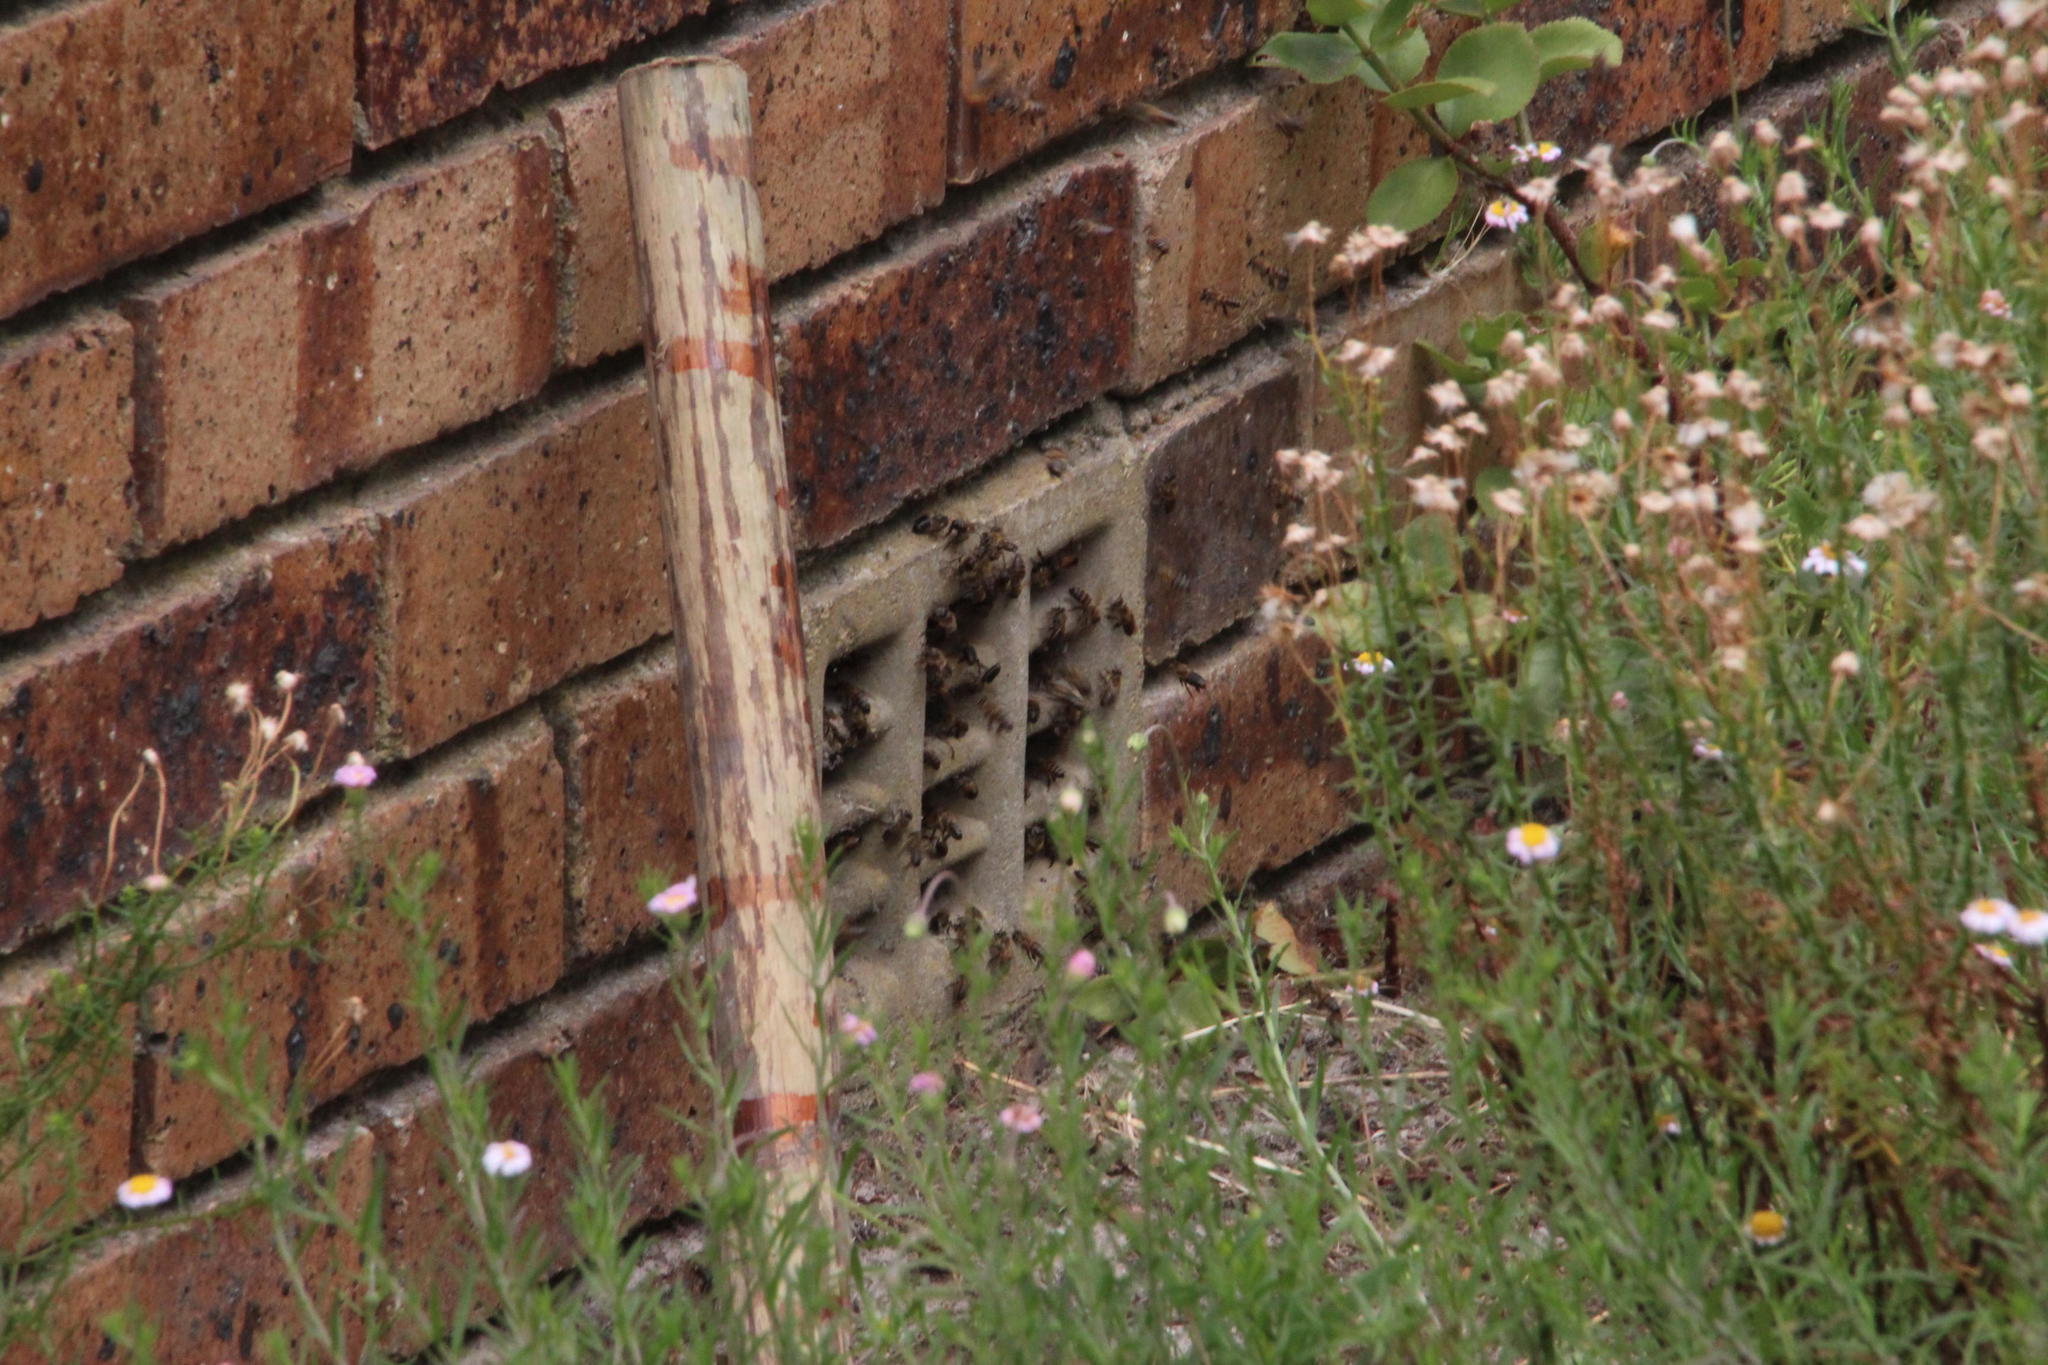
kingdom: Animalia
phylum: Arthropoda
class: Insecta
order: Hymenoptera
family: Apidae
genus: Apis
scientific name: Apis mellifera
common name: Honey bee
